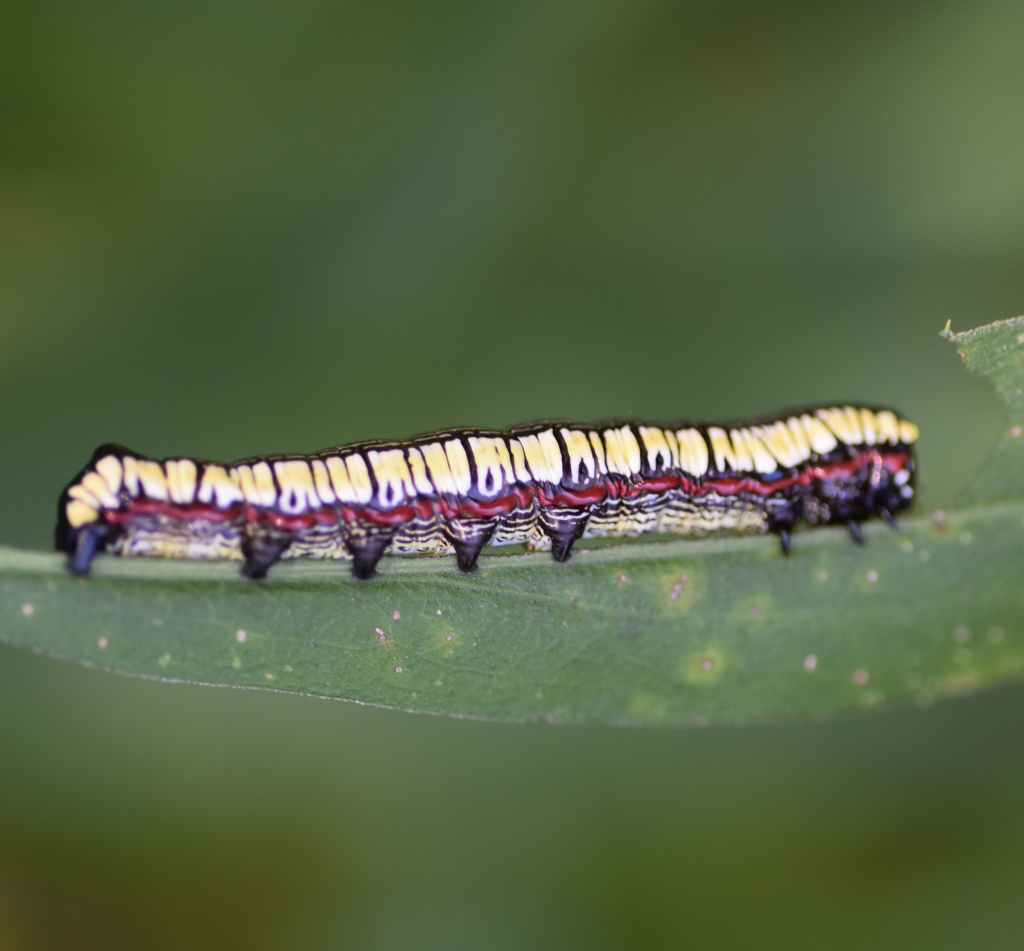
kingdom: Animalia
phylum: Arthropoda
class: Insecta
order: Lepidoptera
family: Noctuidae
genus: Cucullia
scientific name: Cucullia convexipennis
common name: Brown-hooded owlet
